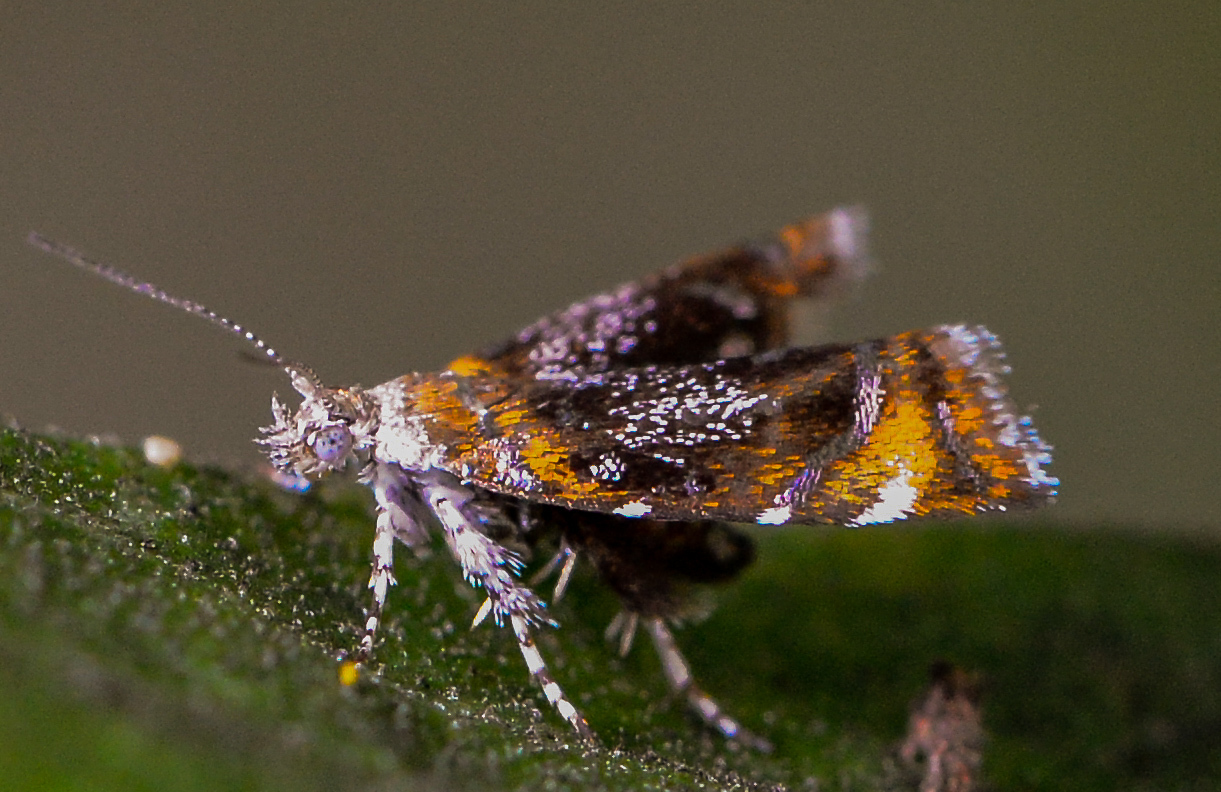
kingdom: Animalia
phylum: Arthropoda
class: Insecta
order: Lepidoptera
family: Choreutidae
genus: Prochoreutis
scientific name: Prochoreutis inflatella
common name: Skullcap skeletonizer moth
